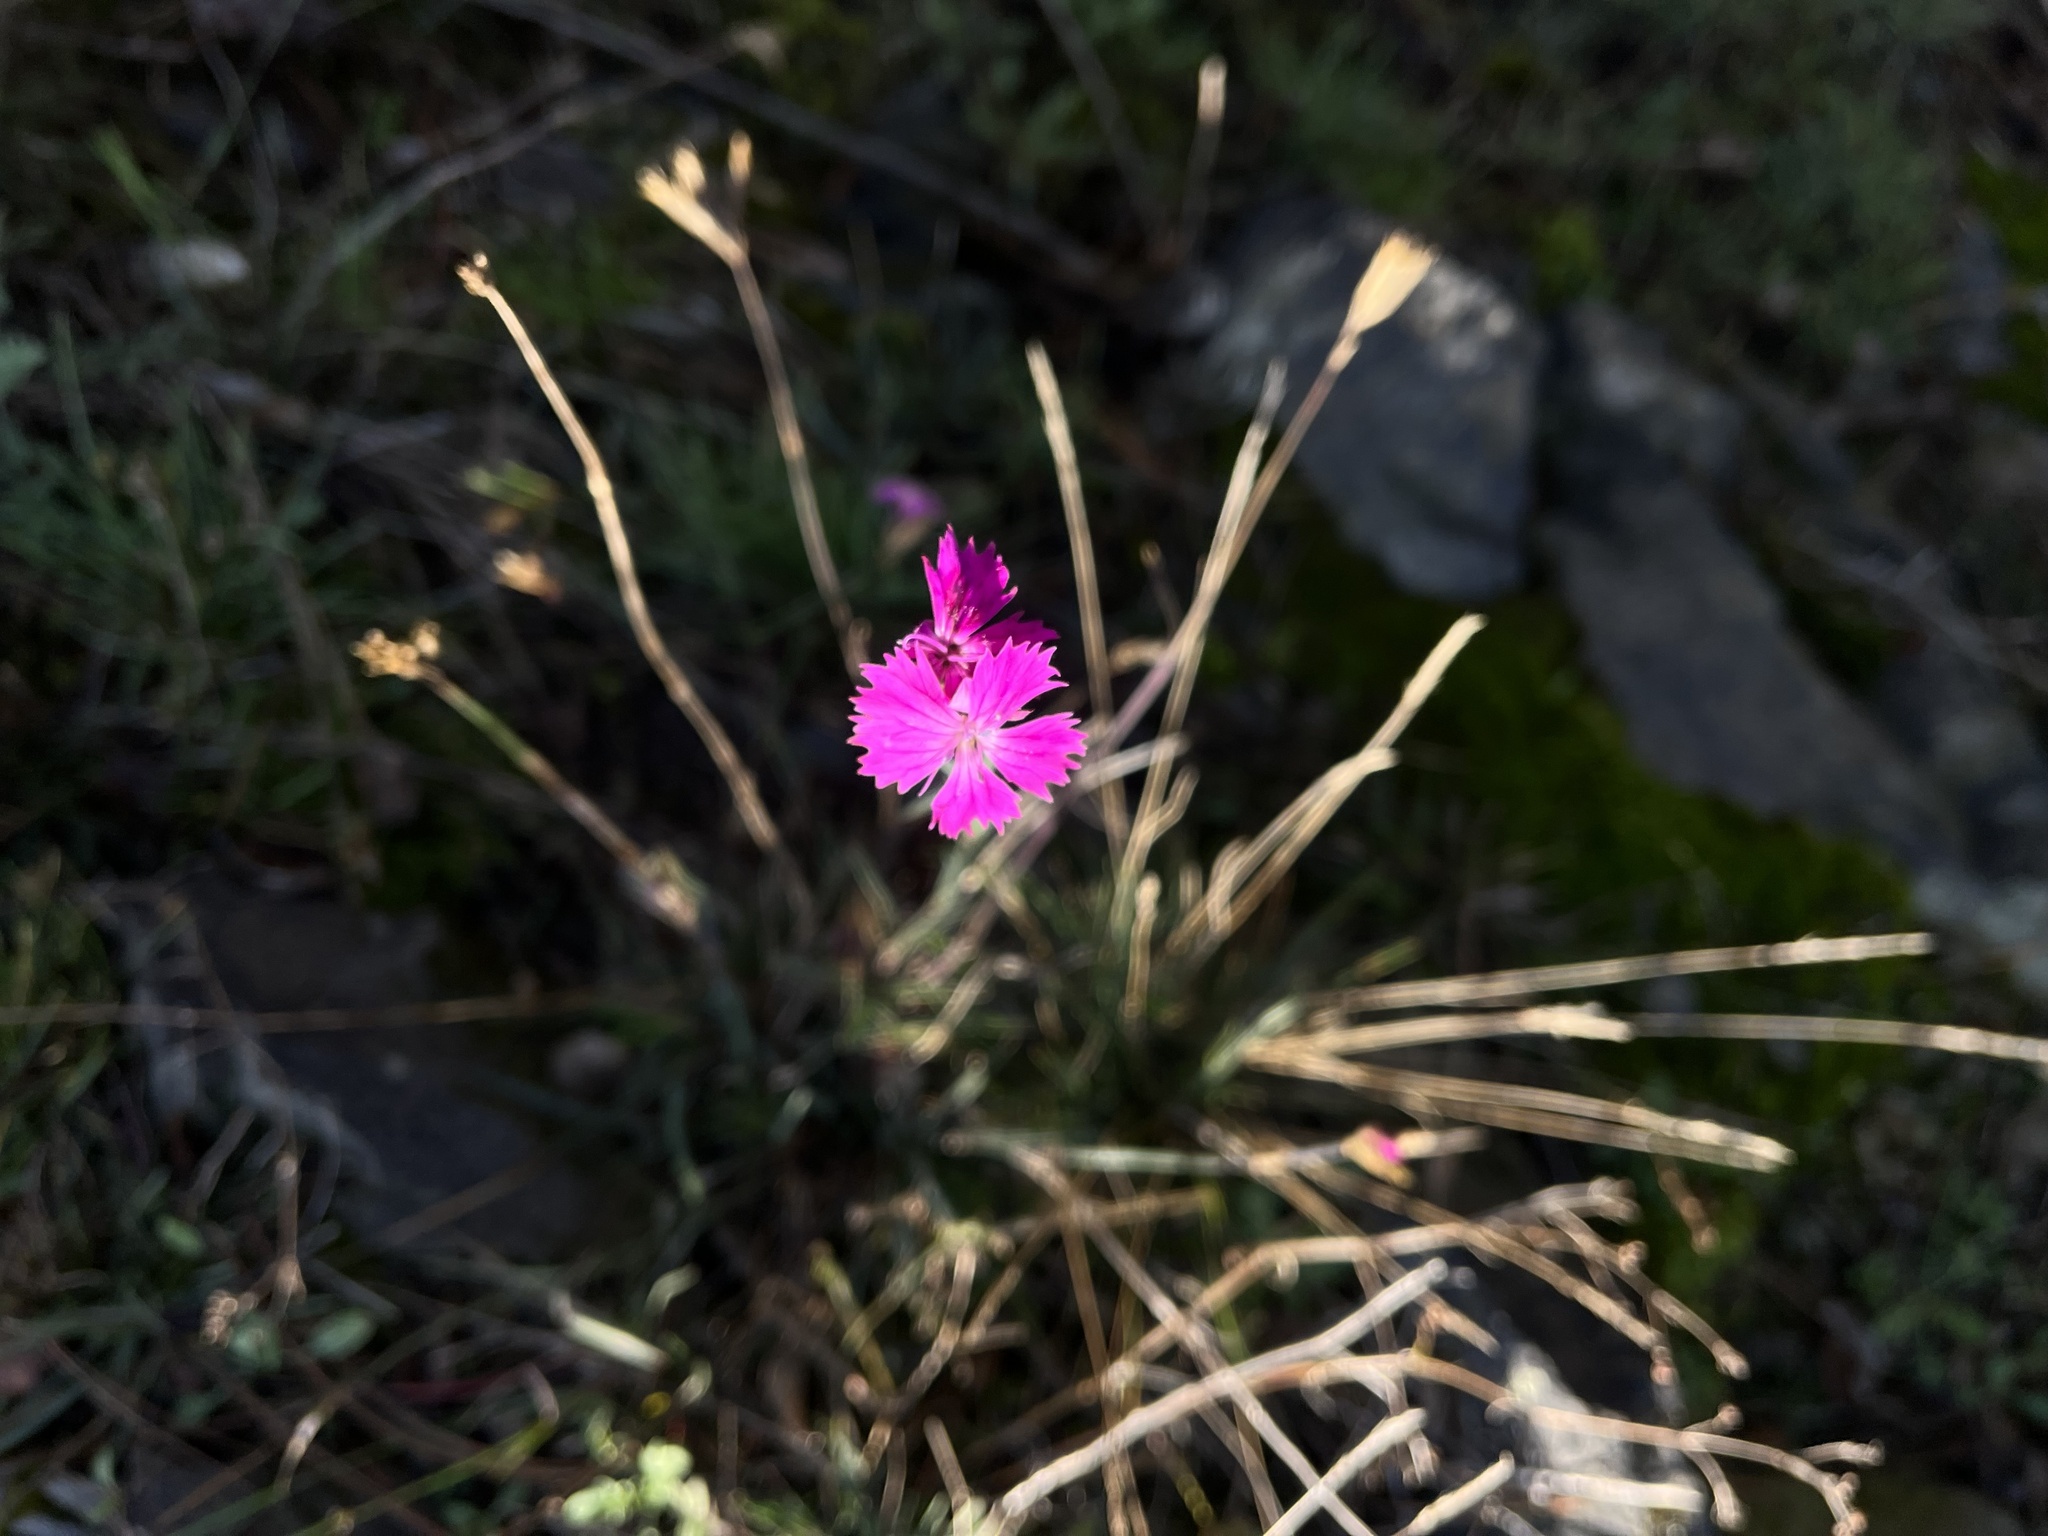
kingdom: Plantae
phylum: Tracheophyta
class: Magnoliopsida
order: Caryophyllales
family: Caryophyllaceae
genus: Dianthus
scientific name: Dianthus carthusianorum
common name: Carthusian pink
